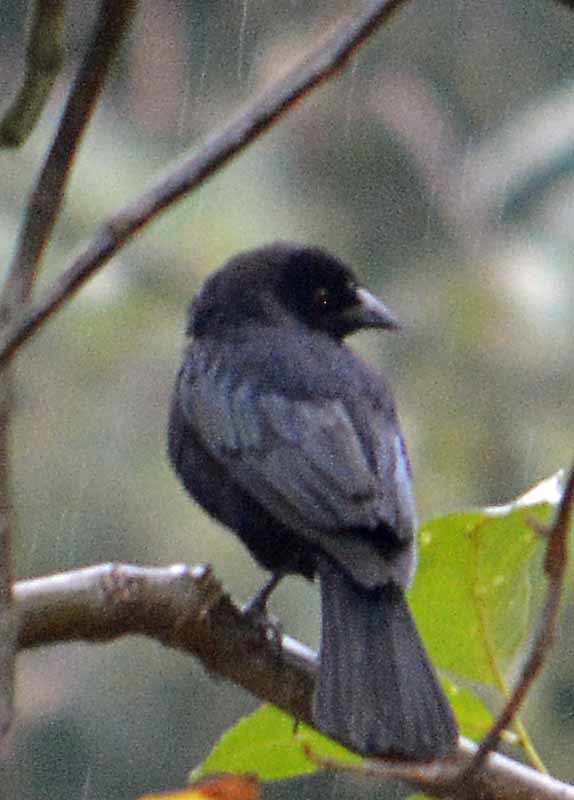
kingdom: Animalia
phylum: Chordata
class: Aves
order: Passeriformes
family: Icteridae
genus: Molothrus
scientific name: Molothrus aeneus
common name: Bronzed cowbird
